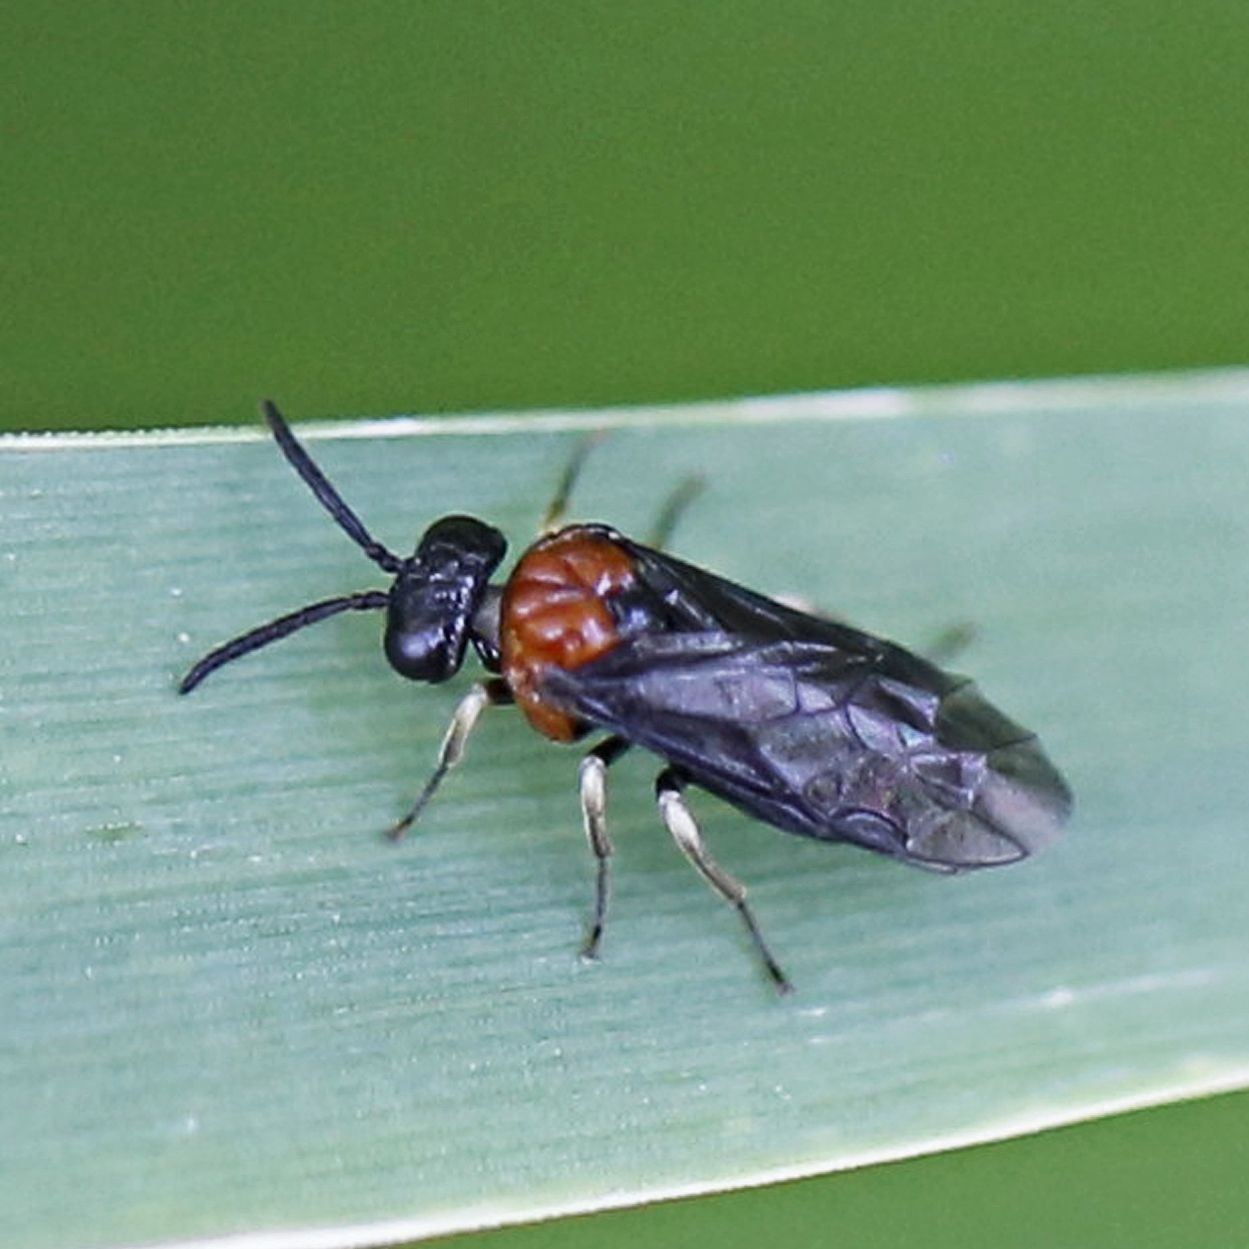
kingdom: Animalia
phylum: Arthropoda
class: Insecta
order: Hymenoptera
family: Tenthredinidae
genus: Eutomostethus
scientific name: Eutomostethus ephippium
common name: Tenthredid wasp
